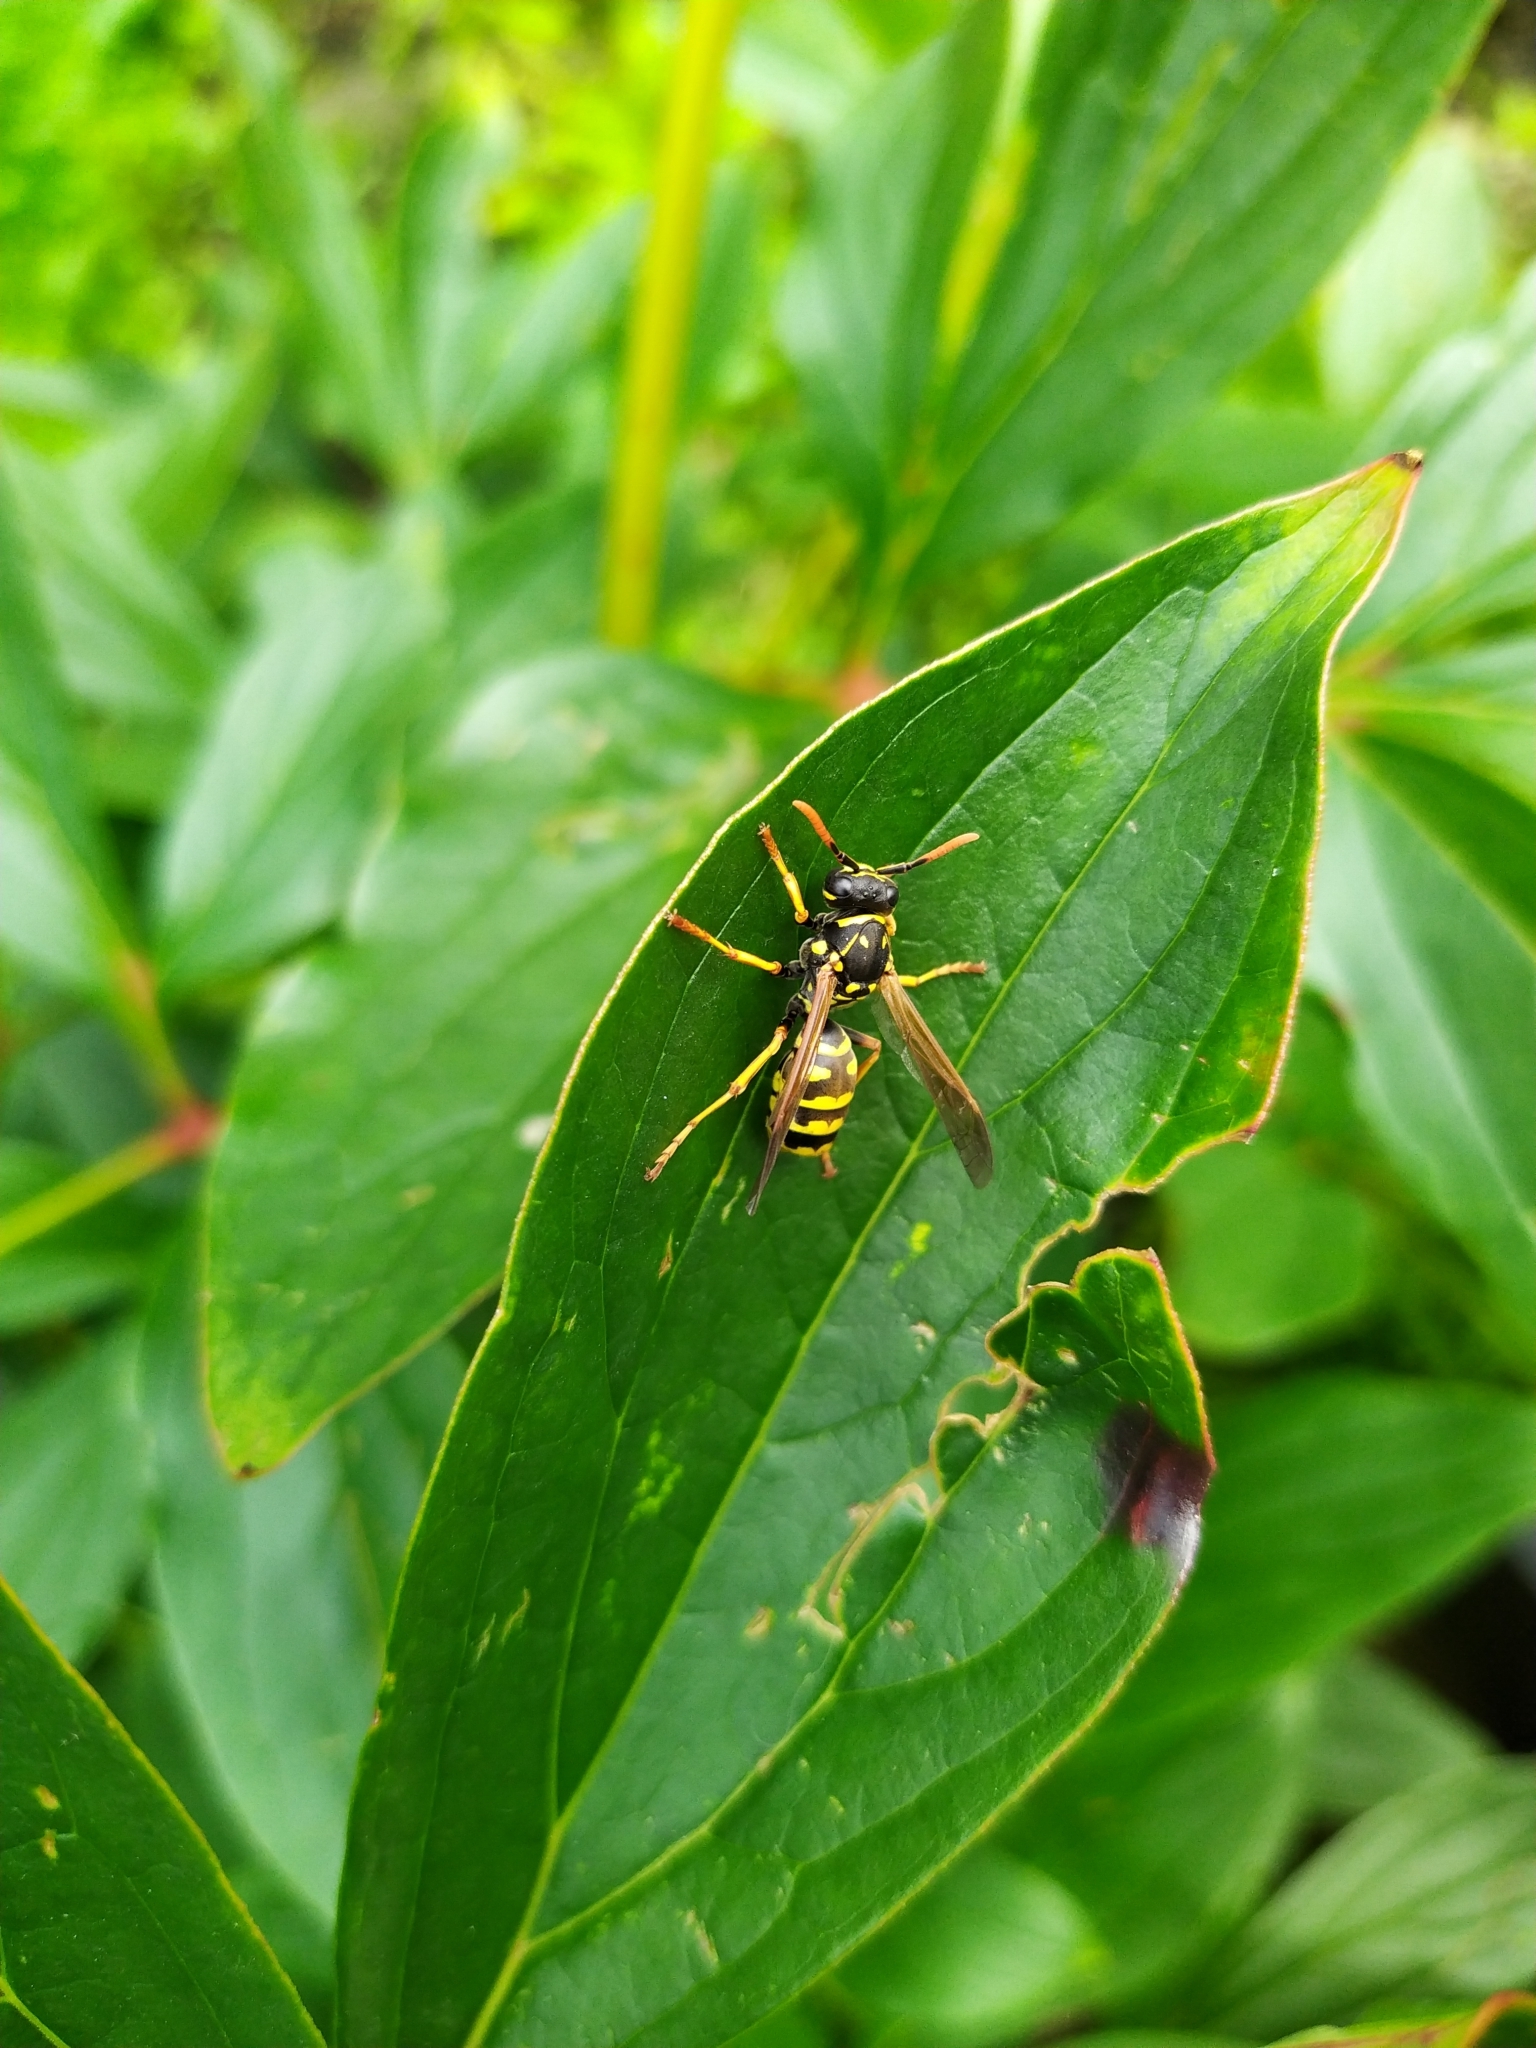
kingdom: Animalia
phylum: Arthropoda
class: Insecta
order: Hymenoptera
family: Eumenidae
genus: Polistes
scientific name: Polistes dominula
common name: Paper wasp
